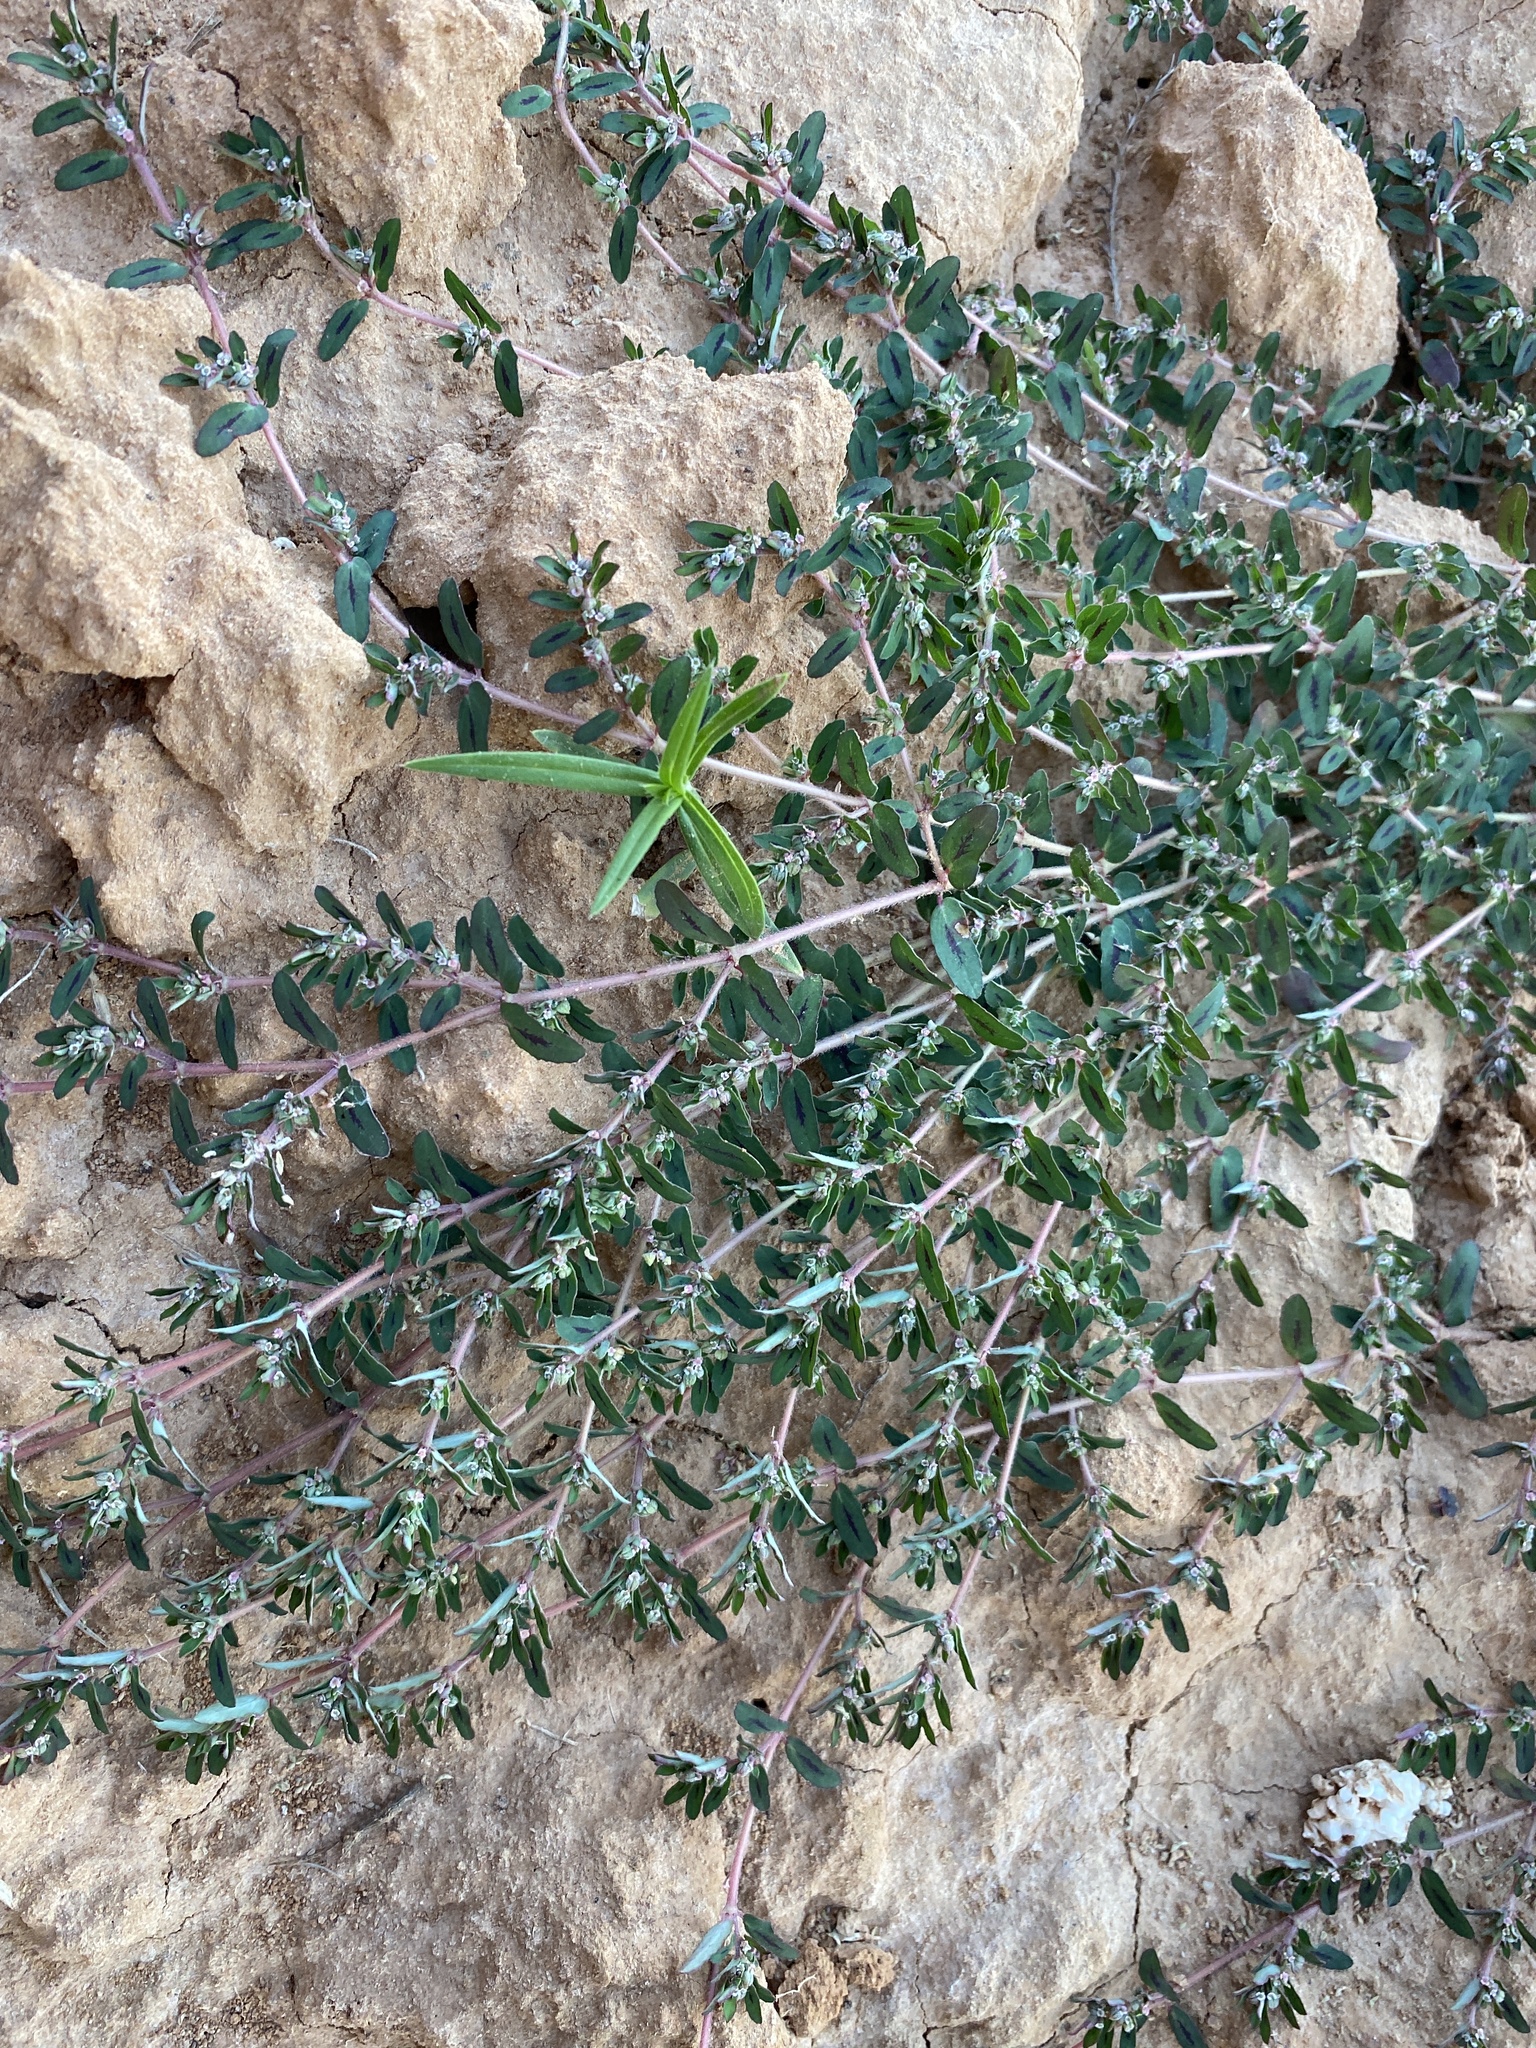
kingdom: Plantae
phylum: Tracheophyta
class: Magnoliopsida
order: Malpighiales
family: Euphorbiaceae
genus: Euphorbia
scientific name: Euphorbia maculata
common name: Spotted spurge
